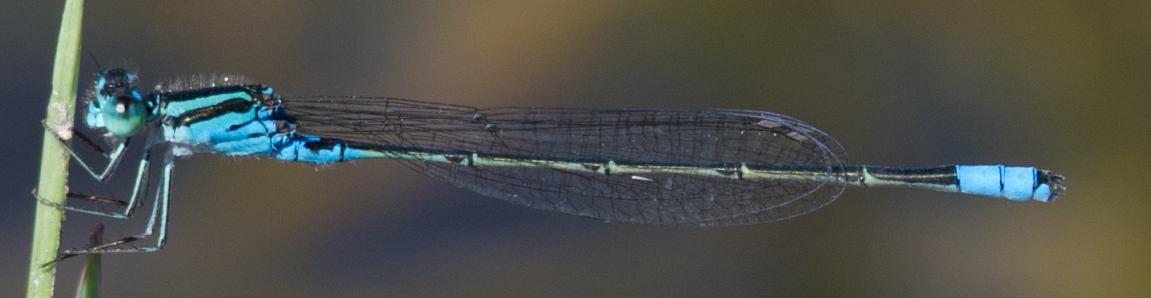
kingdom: Animalia
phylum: Arthropoda
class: Insecta
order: Odonata
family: Coenagrionidae
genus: Pseudagrion
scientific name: Pseudagrion coeleste
